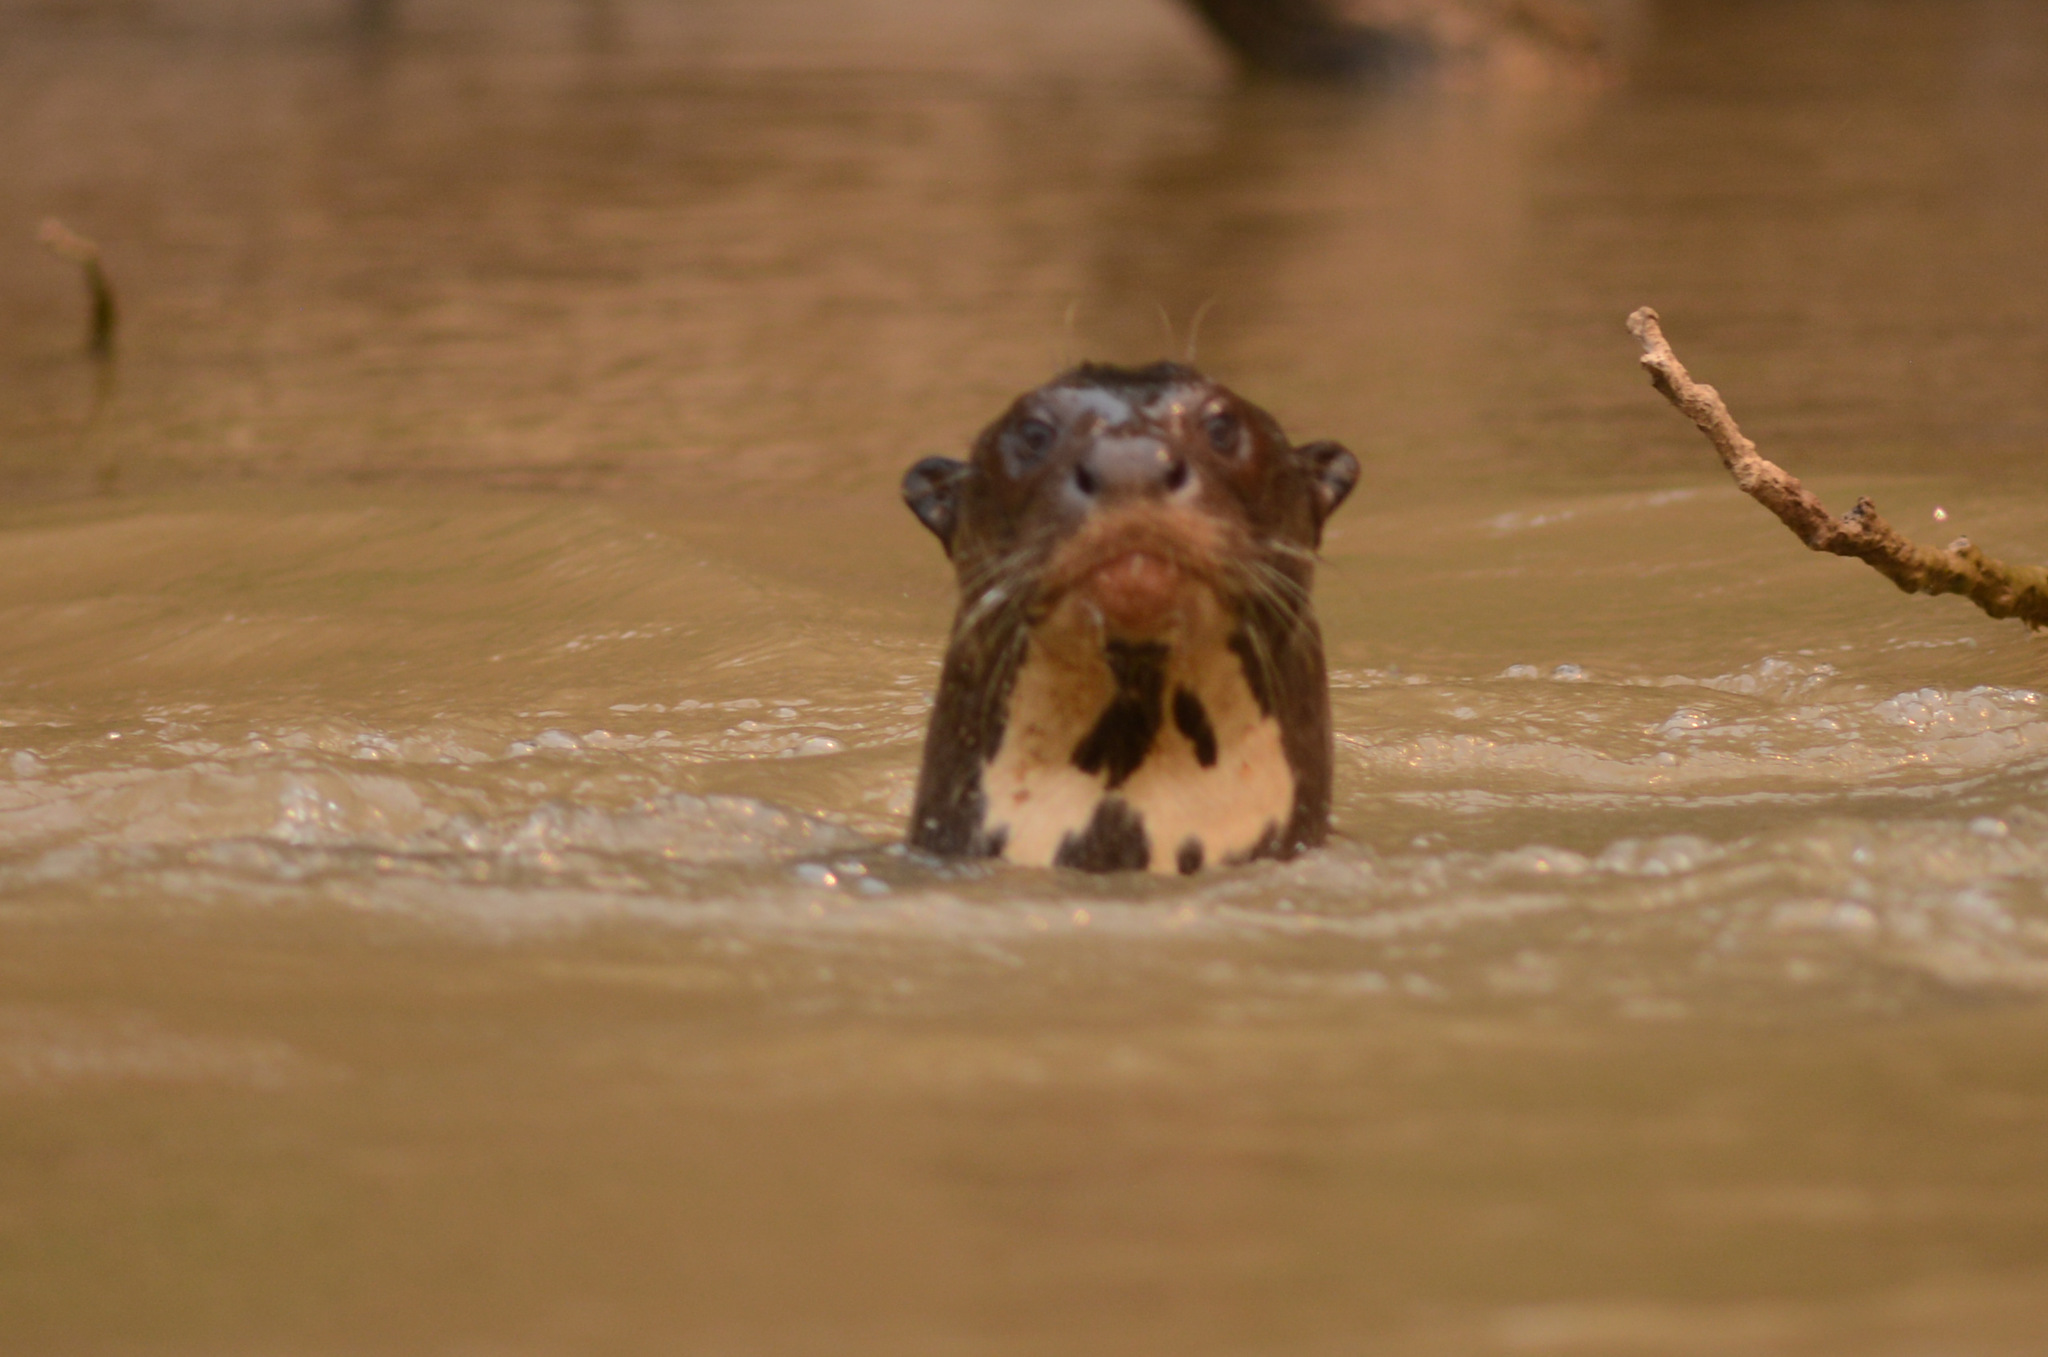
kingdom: Animalia
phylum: Chordata
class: Mammalia
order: Carnivora
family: Mustelidae
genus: Pteronura
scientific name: Pteronura brasiliensis
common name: Giant otter
